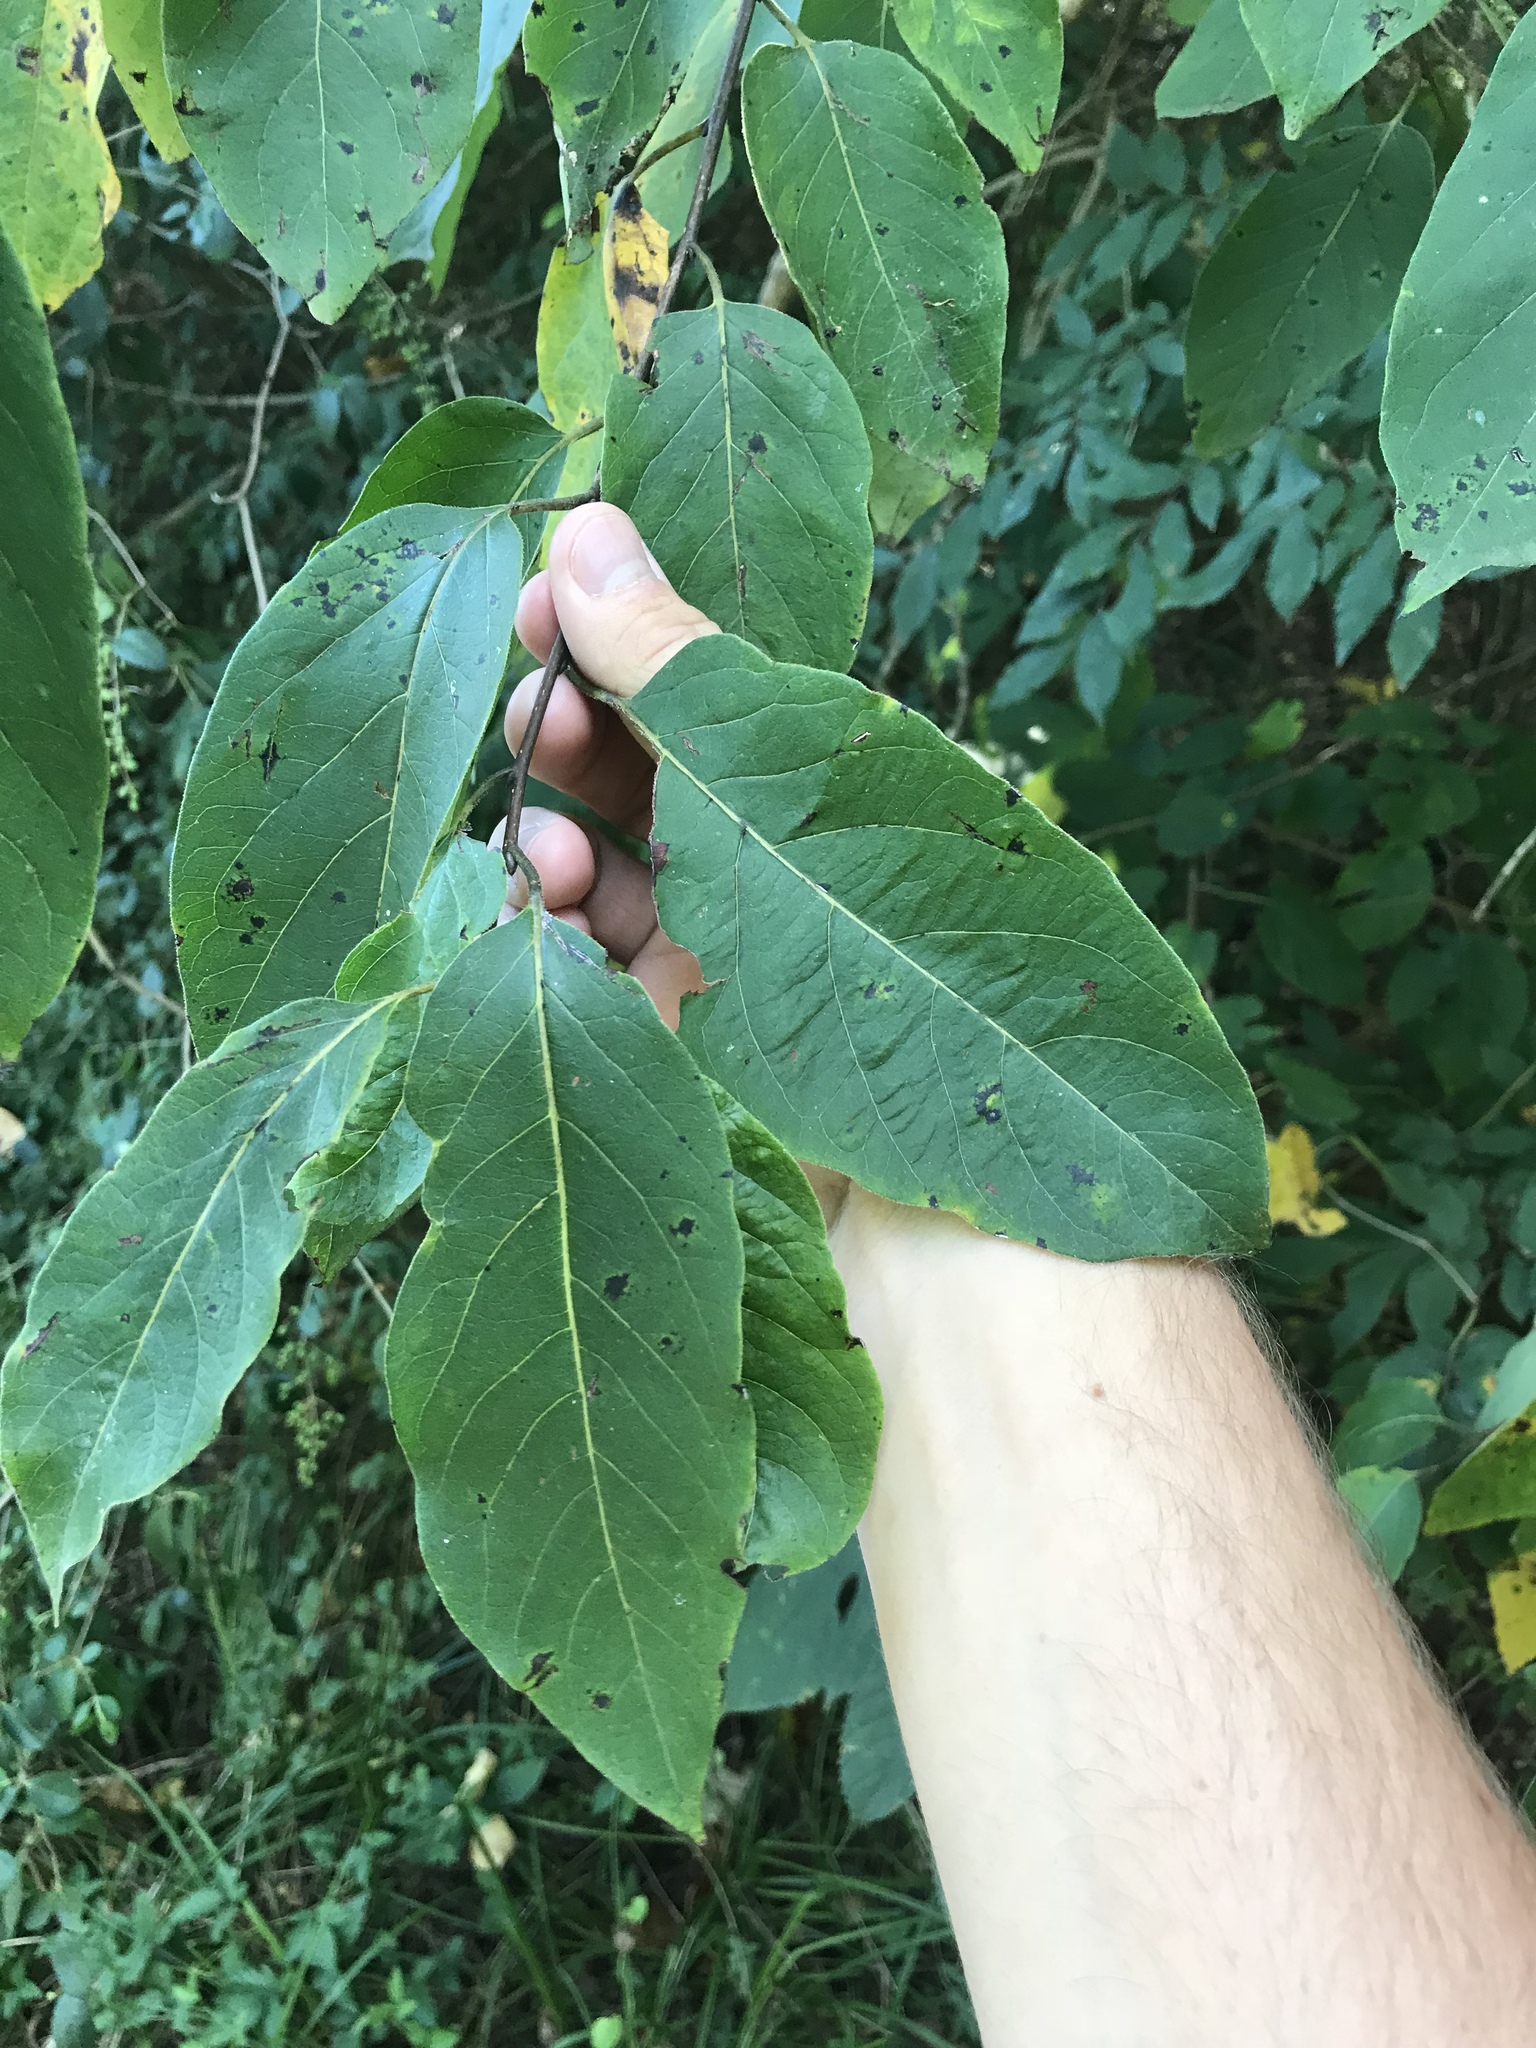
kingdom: Plantae
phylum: Tracheophyta
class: Magnoliopsida
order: Ericales
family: Ebenaceae
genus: Diospyros
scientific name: Diospyros virginiana
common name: Persimmon
